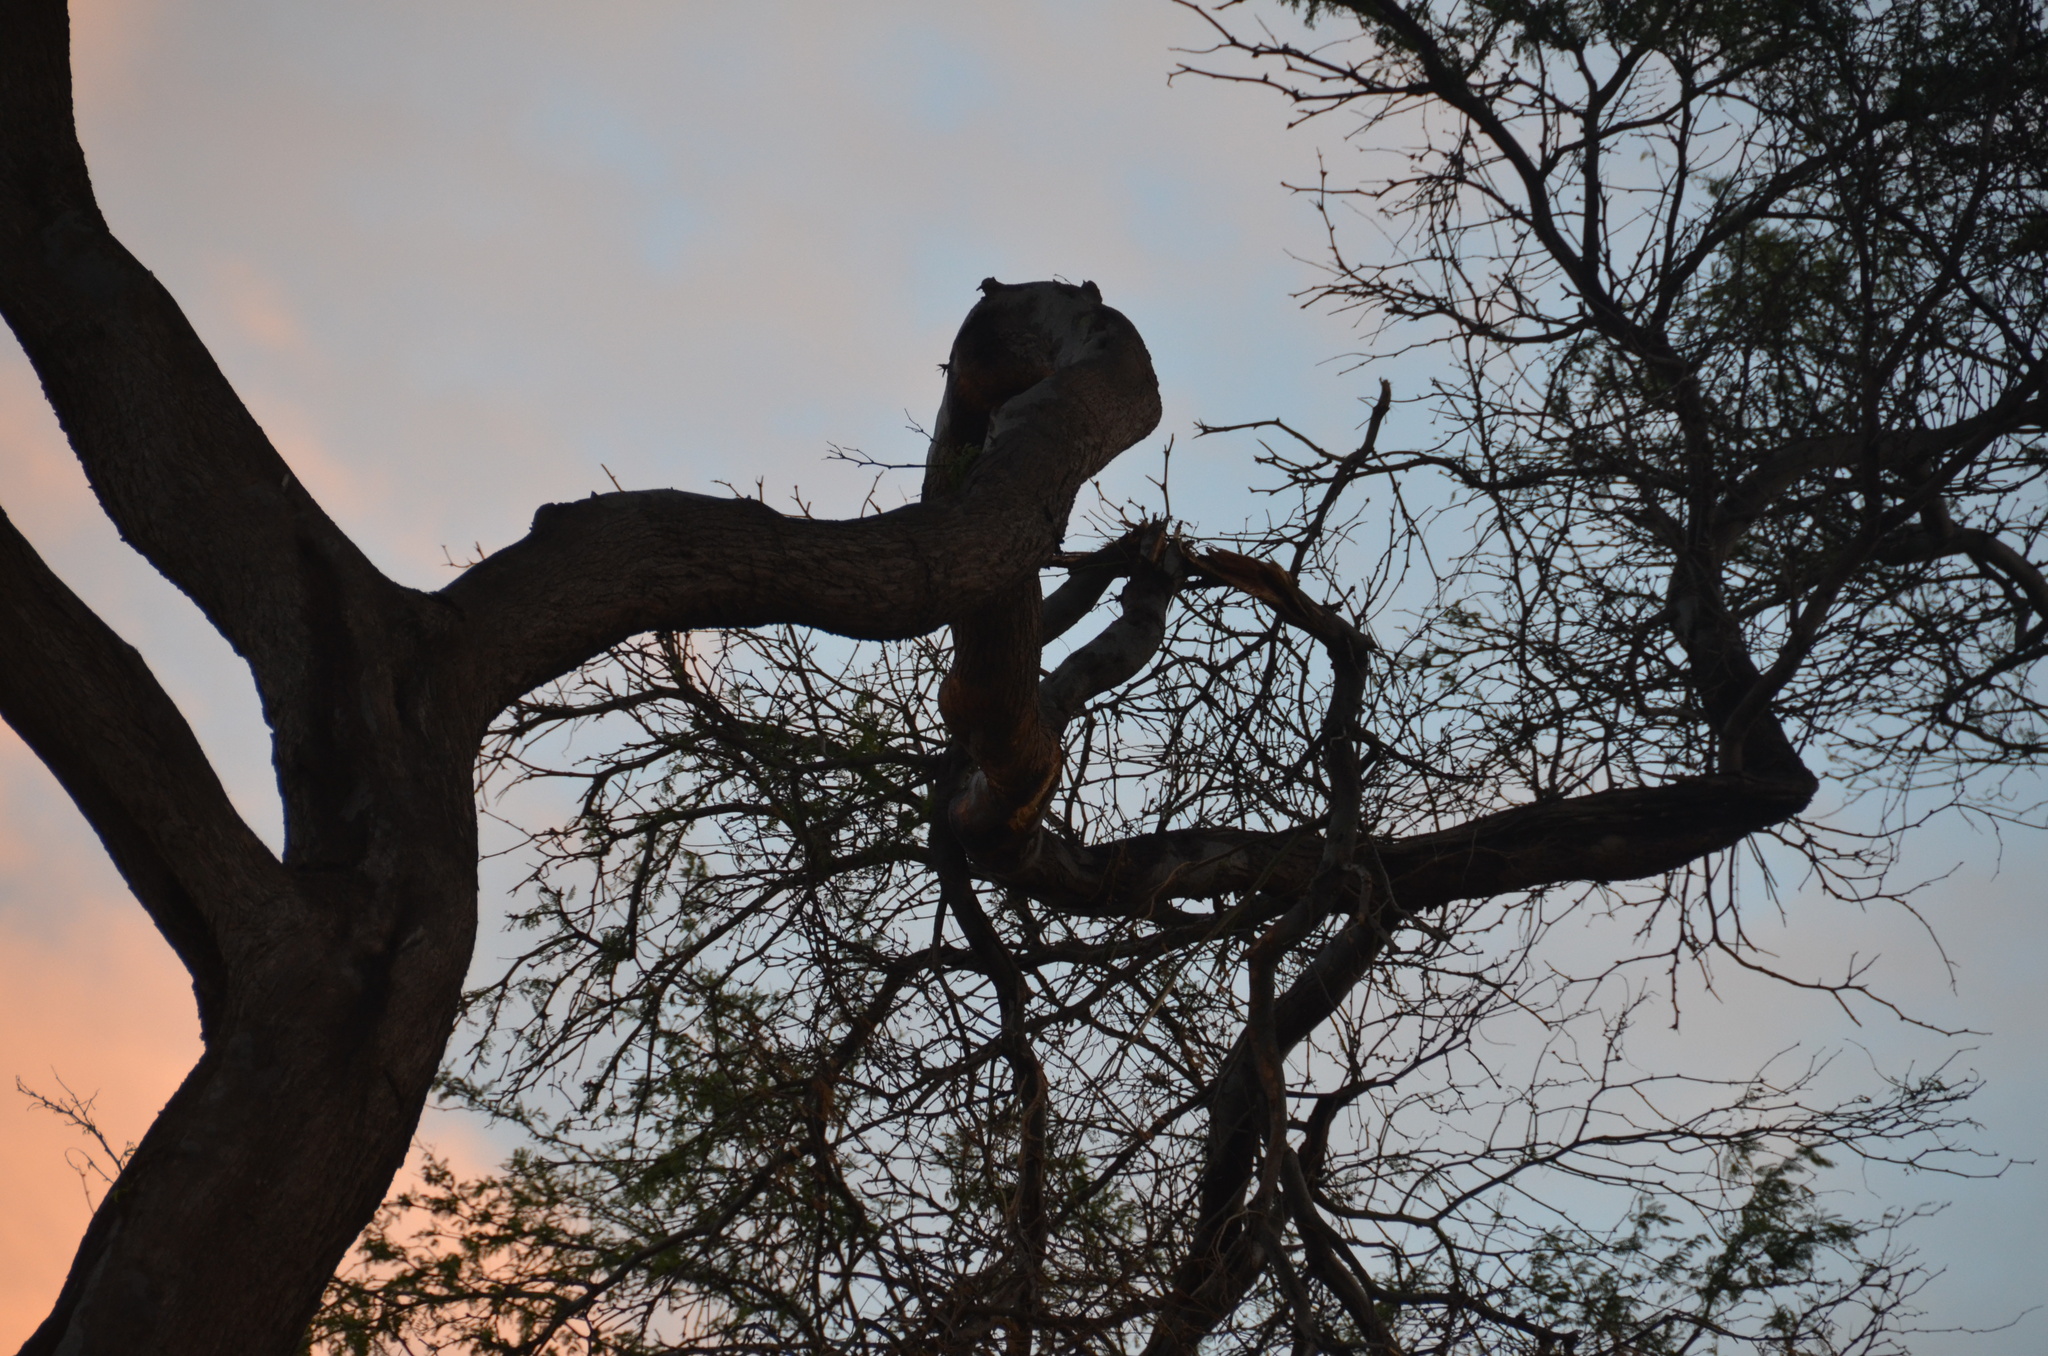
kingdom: Plantae
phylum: Tracheophyta
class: Magnoliopsida
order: Fabales
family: Fabaceae
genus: Prosopis
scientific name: Prosopis pallida
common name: Mesquite
